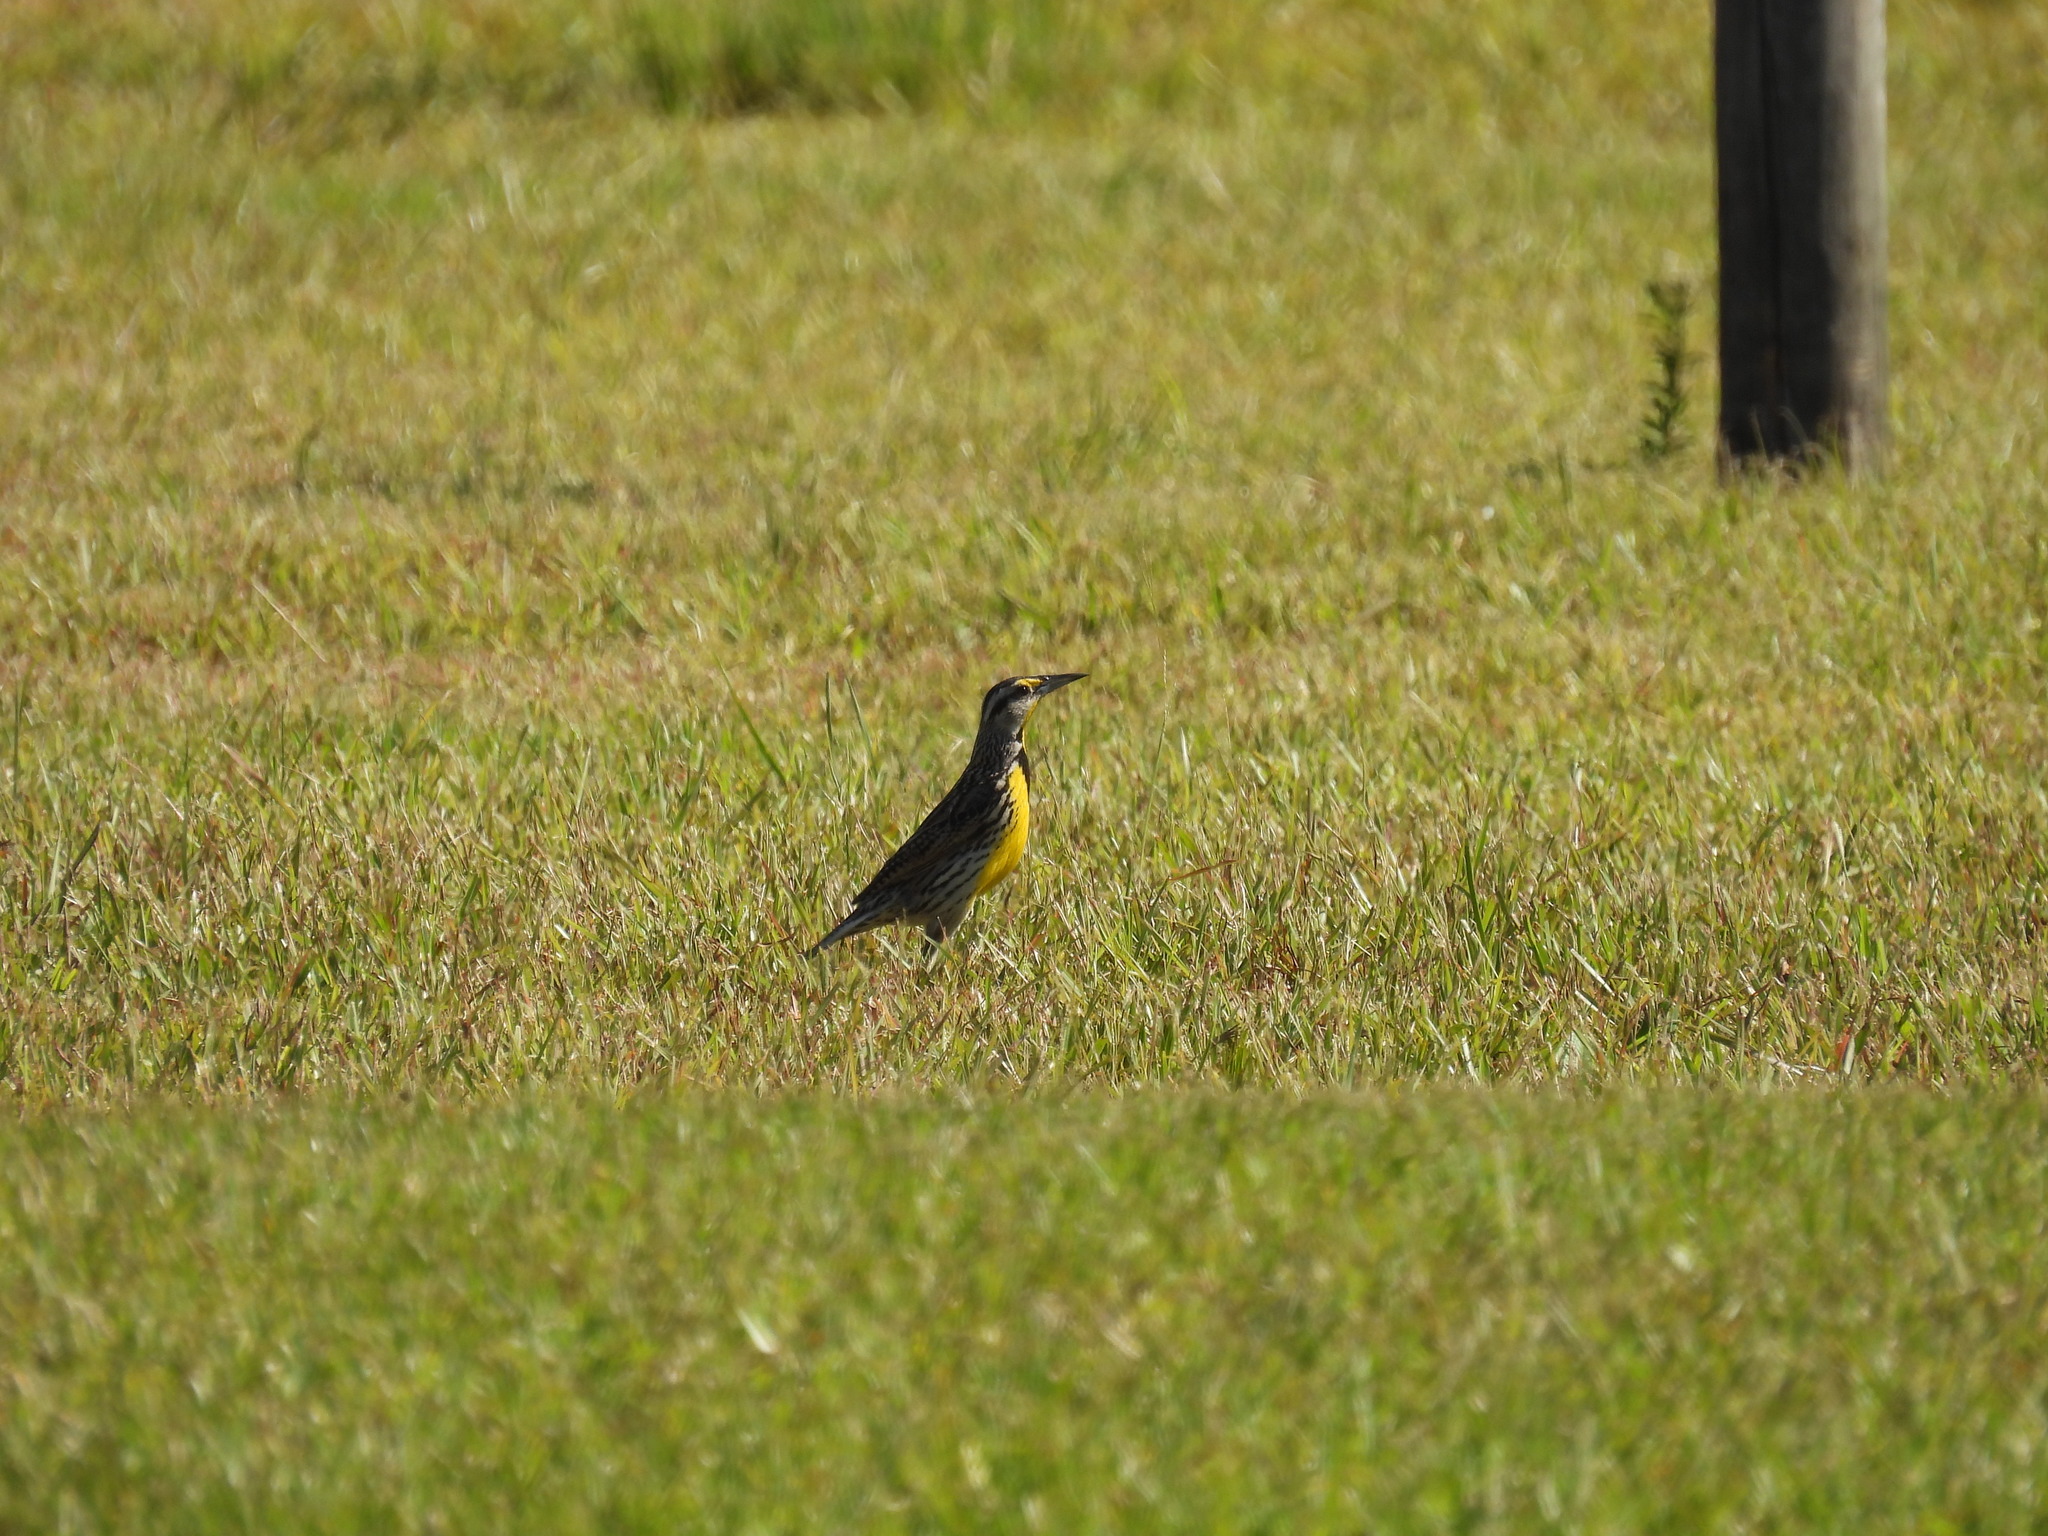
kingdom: Animalia
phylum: Chordata
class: Aves
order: Passeriformes
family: Icteridae
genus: Sturnella
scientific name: Sturnella magna
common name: Eastern meadowlark
